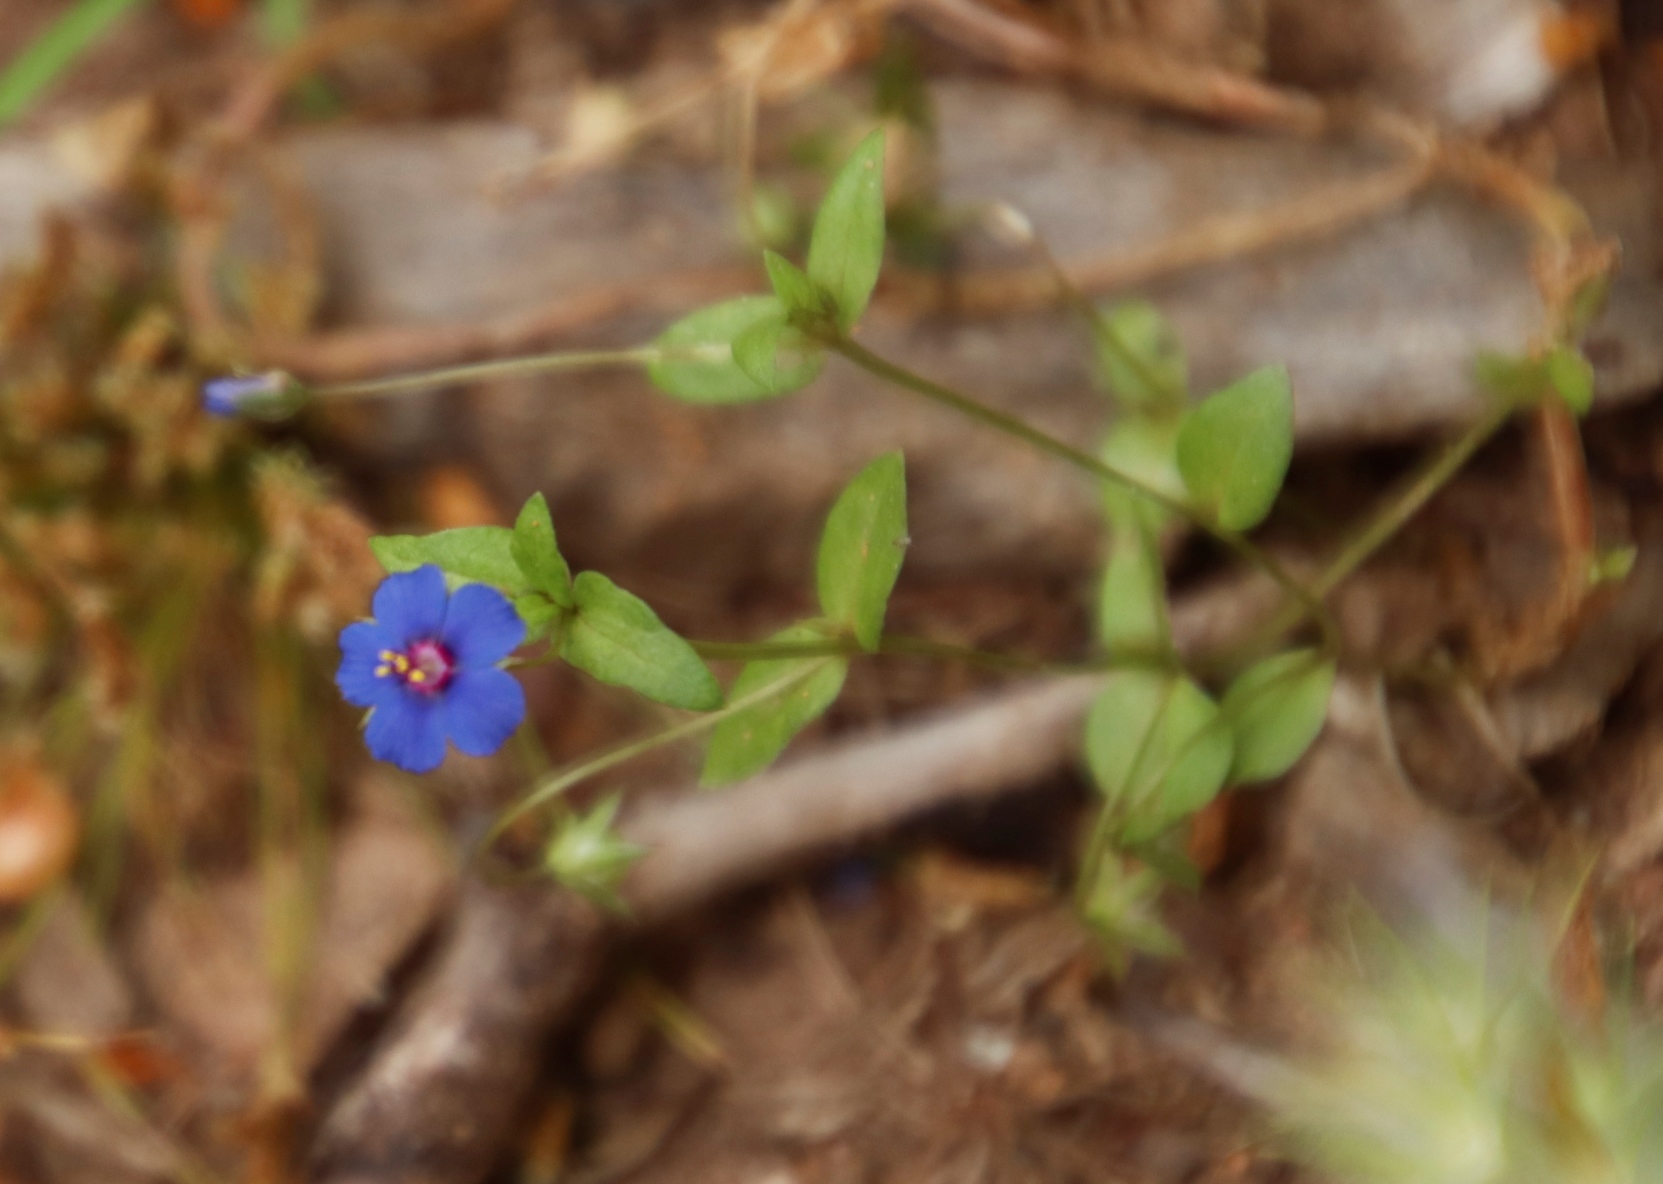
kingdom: Plantae
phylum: Tracheophyta
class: Magnoliopsida
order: Ericales
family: Primulaceae
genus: Lysimachia
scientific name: Lysimachia loeflingii
